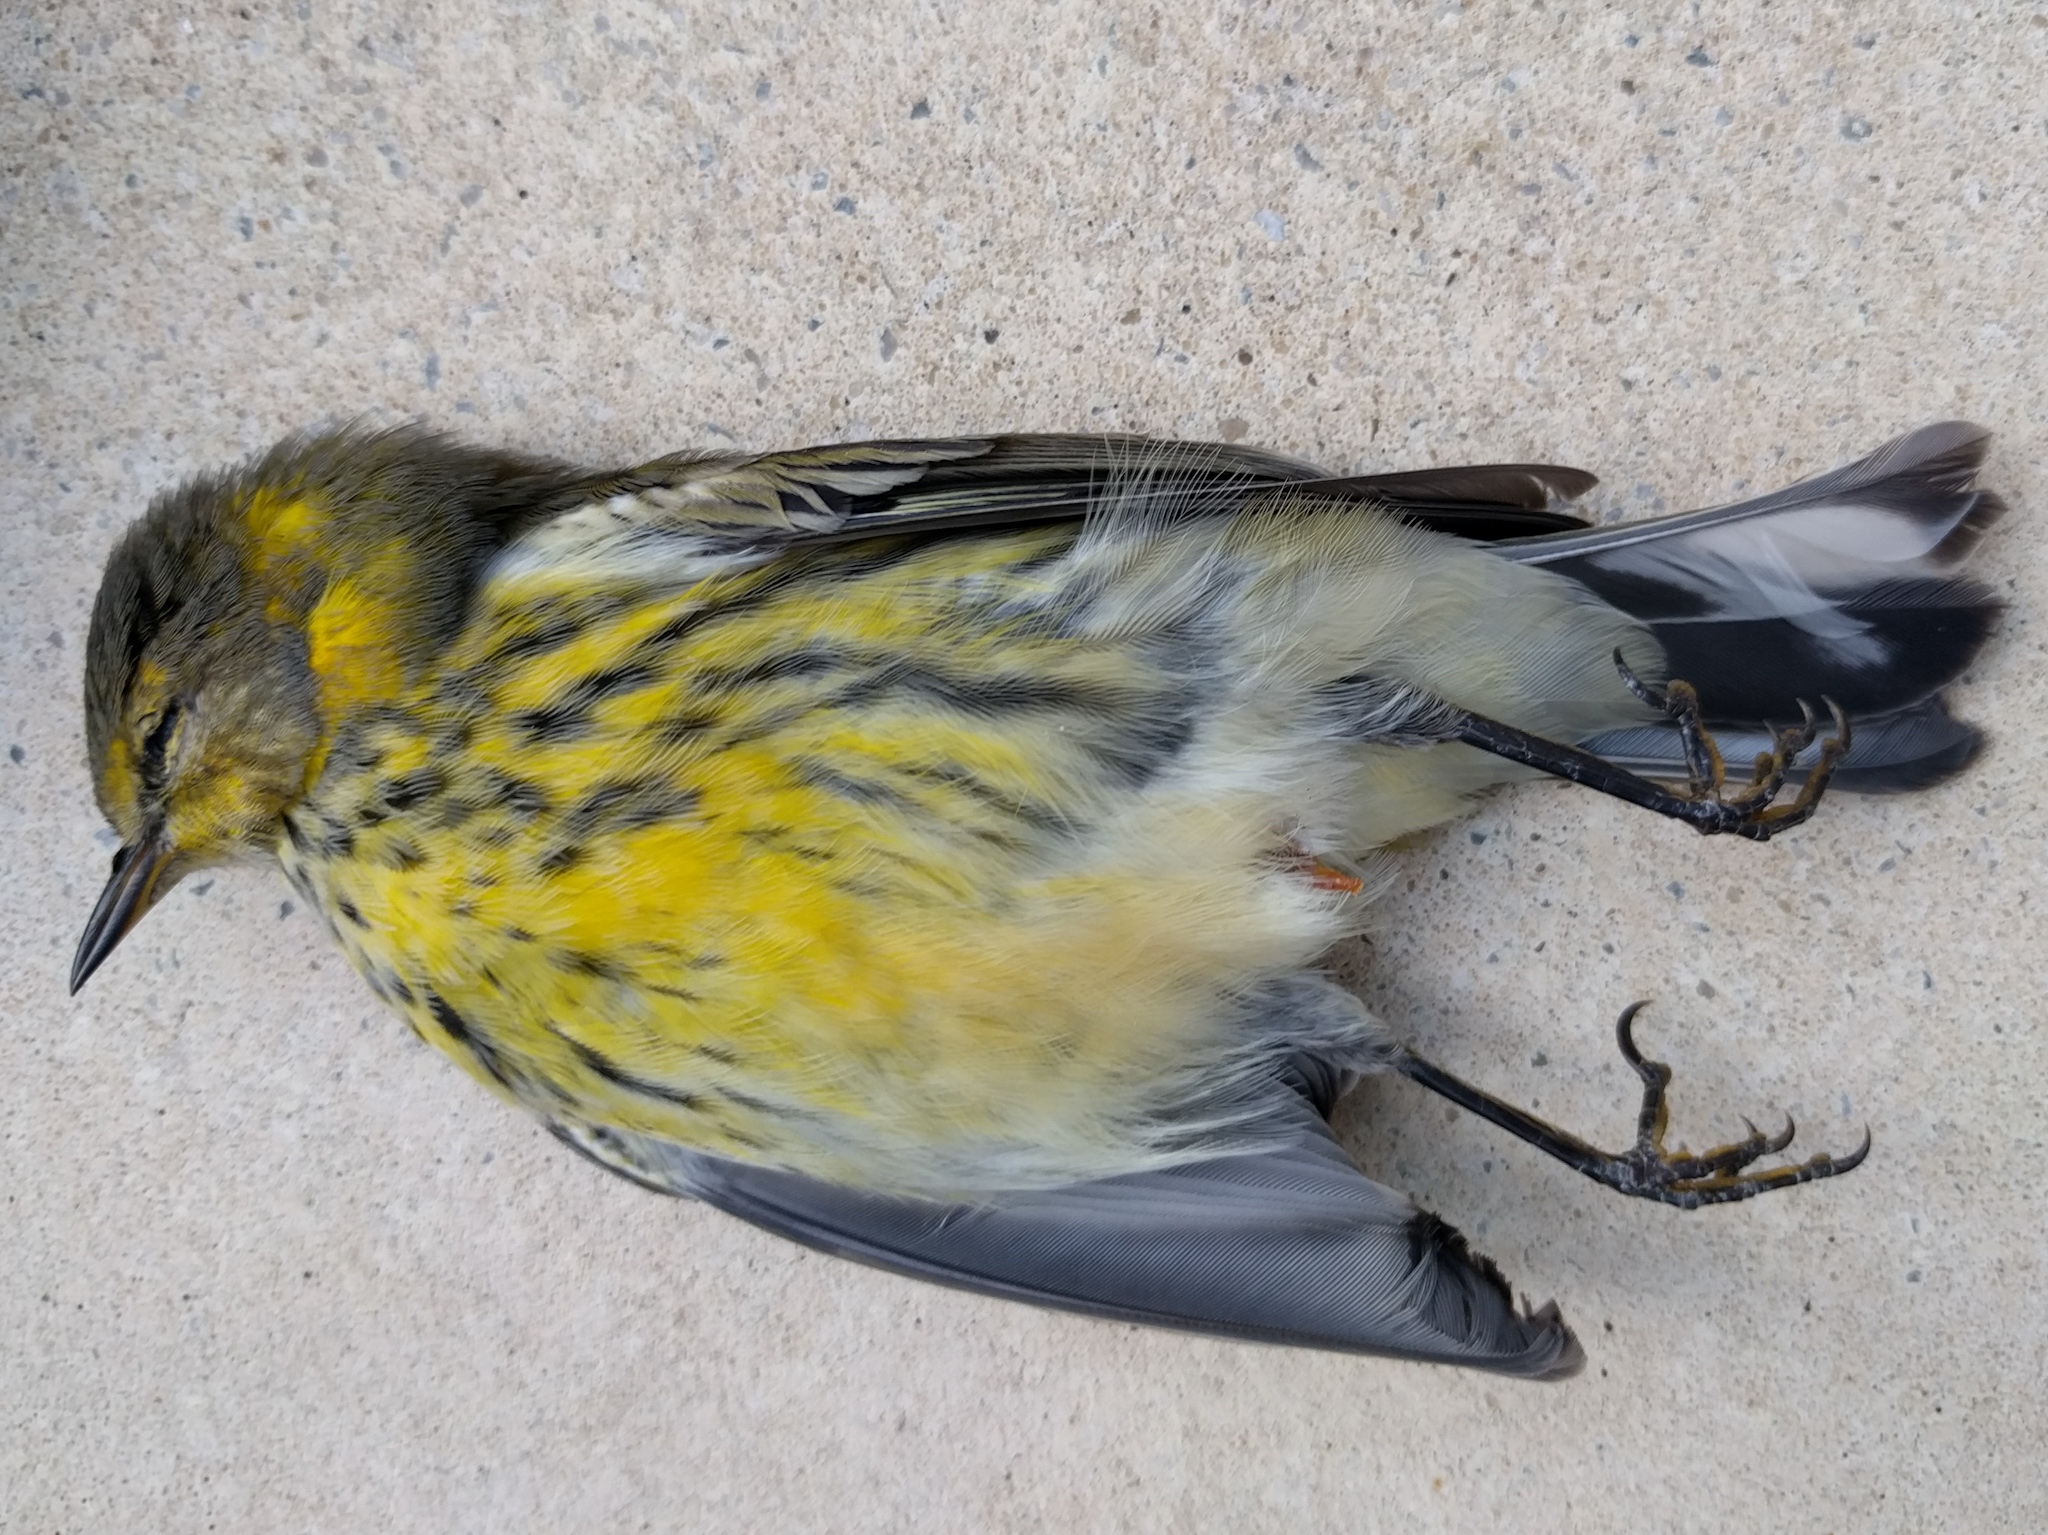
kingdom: Animalia
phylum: Chordata
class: Aves
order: Passeriformes
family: Parulidae
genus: Setophaga
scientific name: Setophaga tigrina
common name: Cape may warbler
